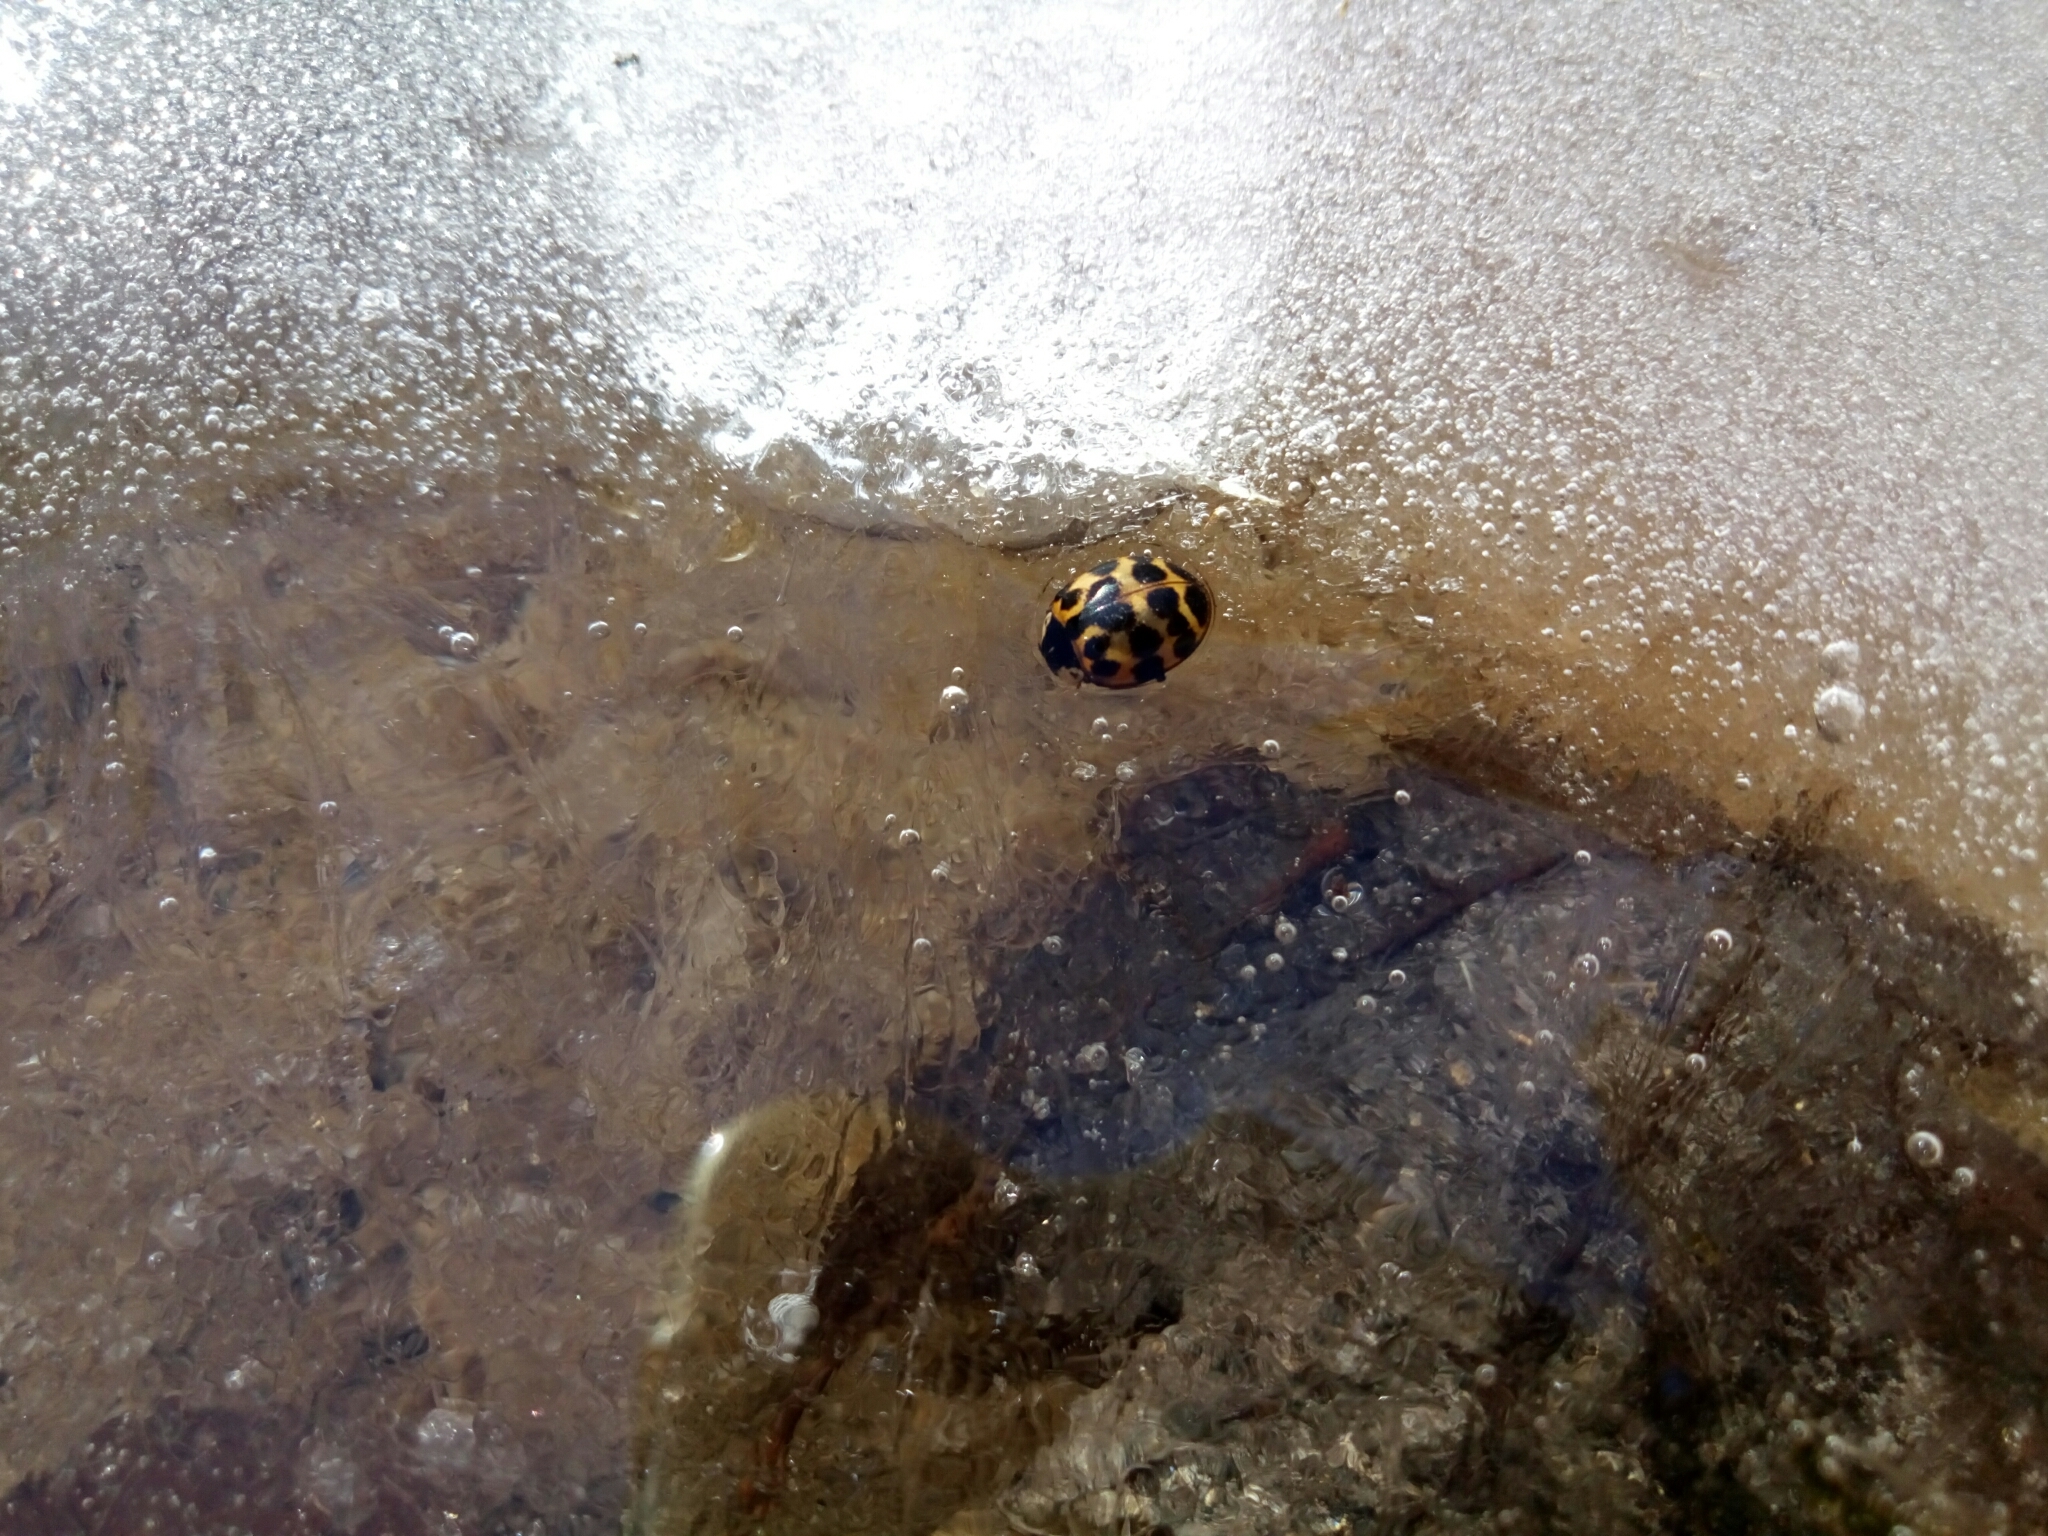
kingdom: Animalia
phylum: Arthropoda
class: Insecta
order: Coleoptera
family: Coccinellidae
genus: Harmonia
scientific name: Harmonia axyridis
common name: Harlequin ladybird
